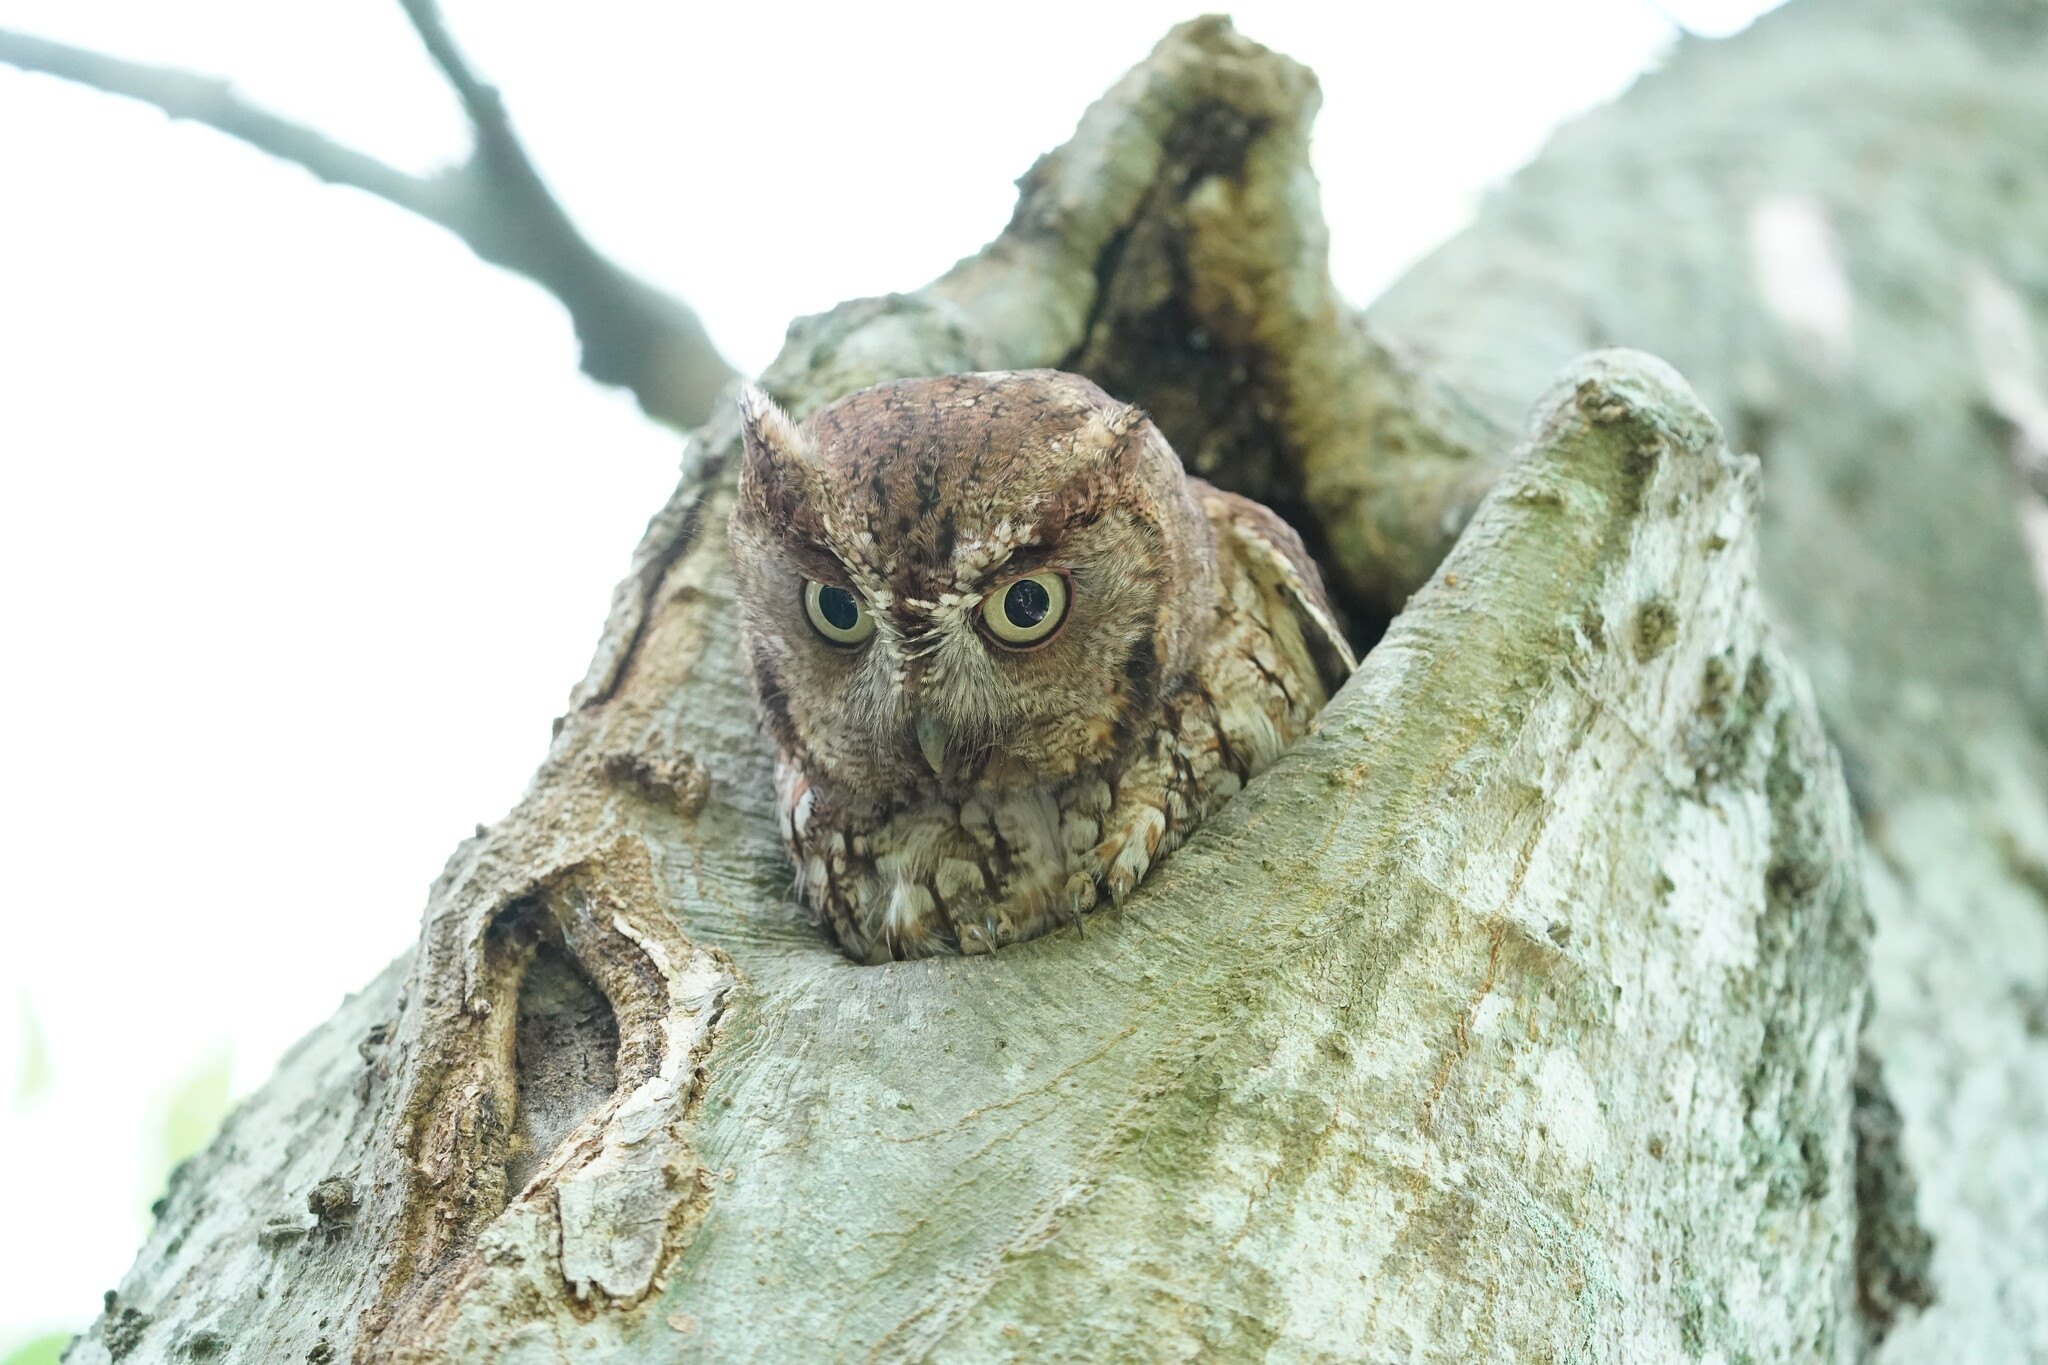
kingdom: Animalia
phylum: Chordata
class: Aves
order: Strigiformes
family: Strigidae
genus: Megascops
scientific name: Megascops asio
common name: Eastern screech-owl
